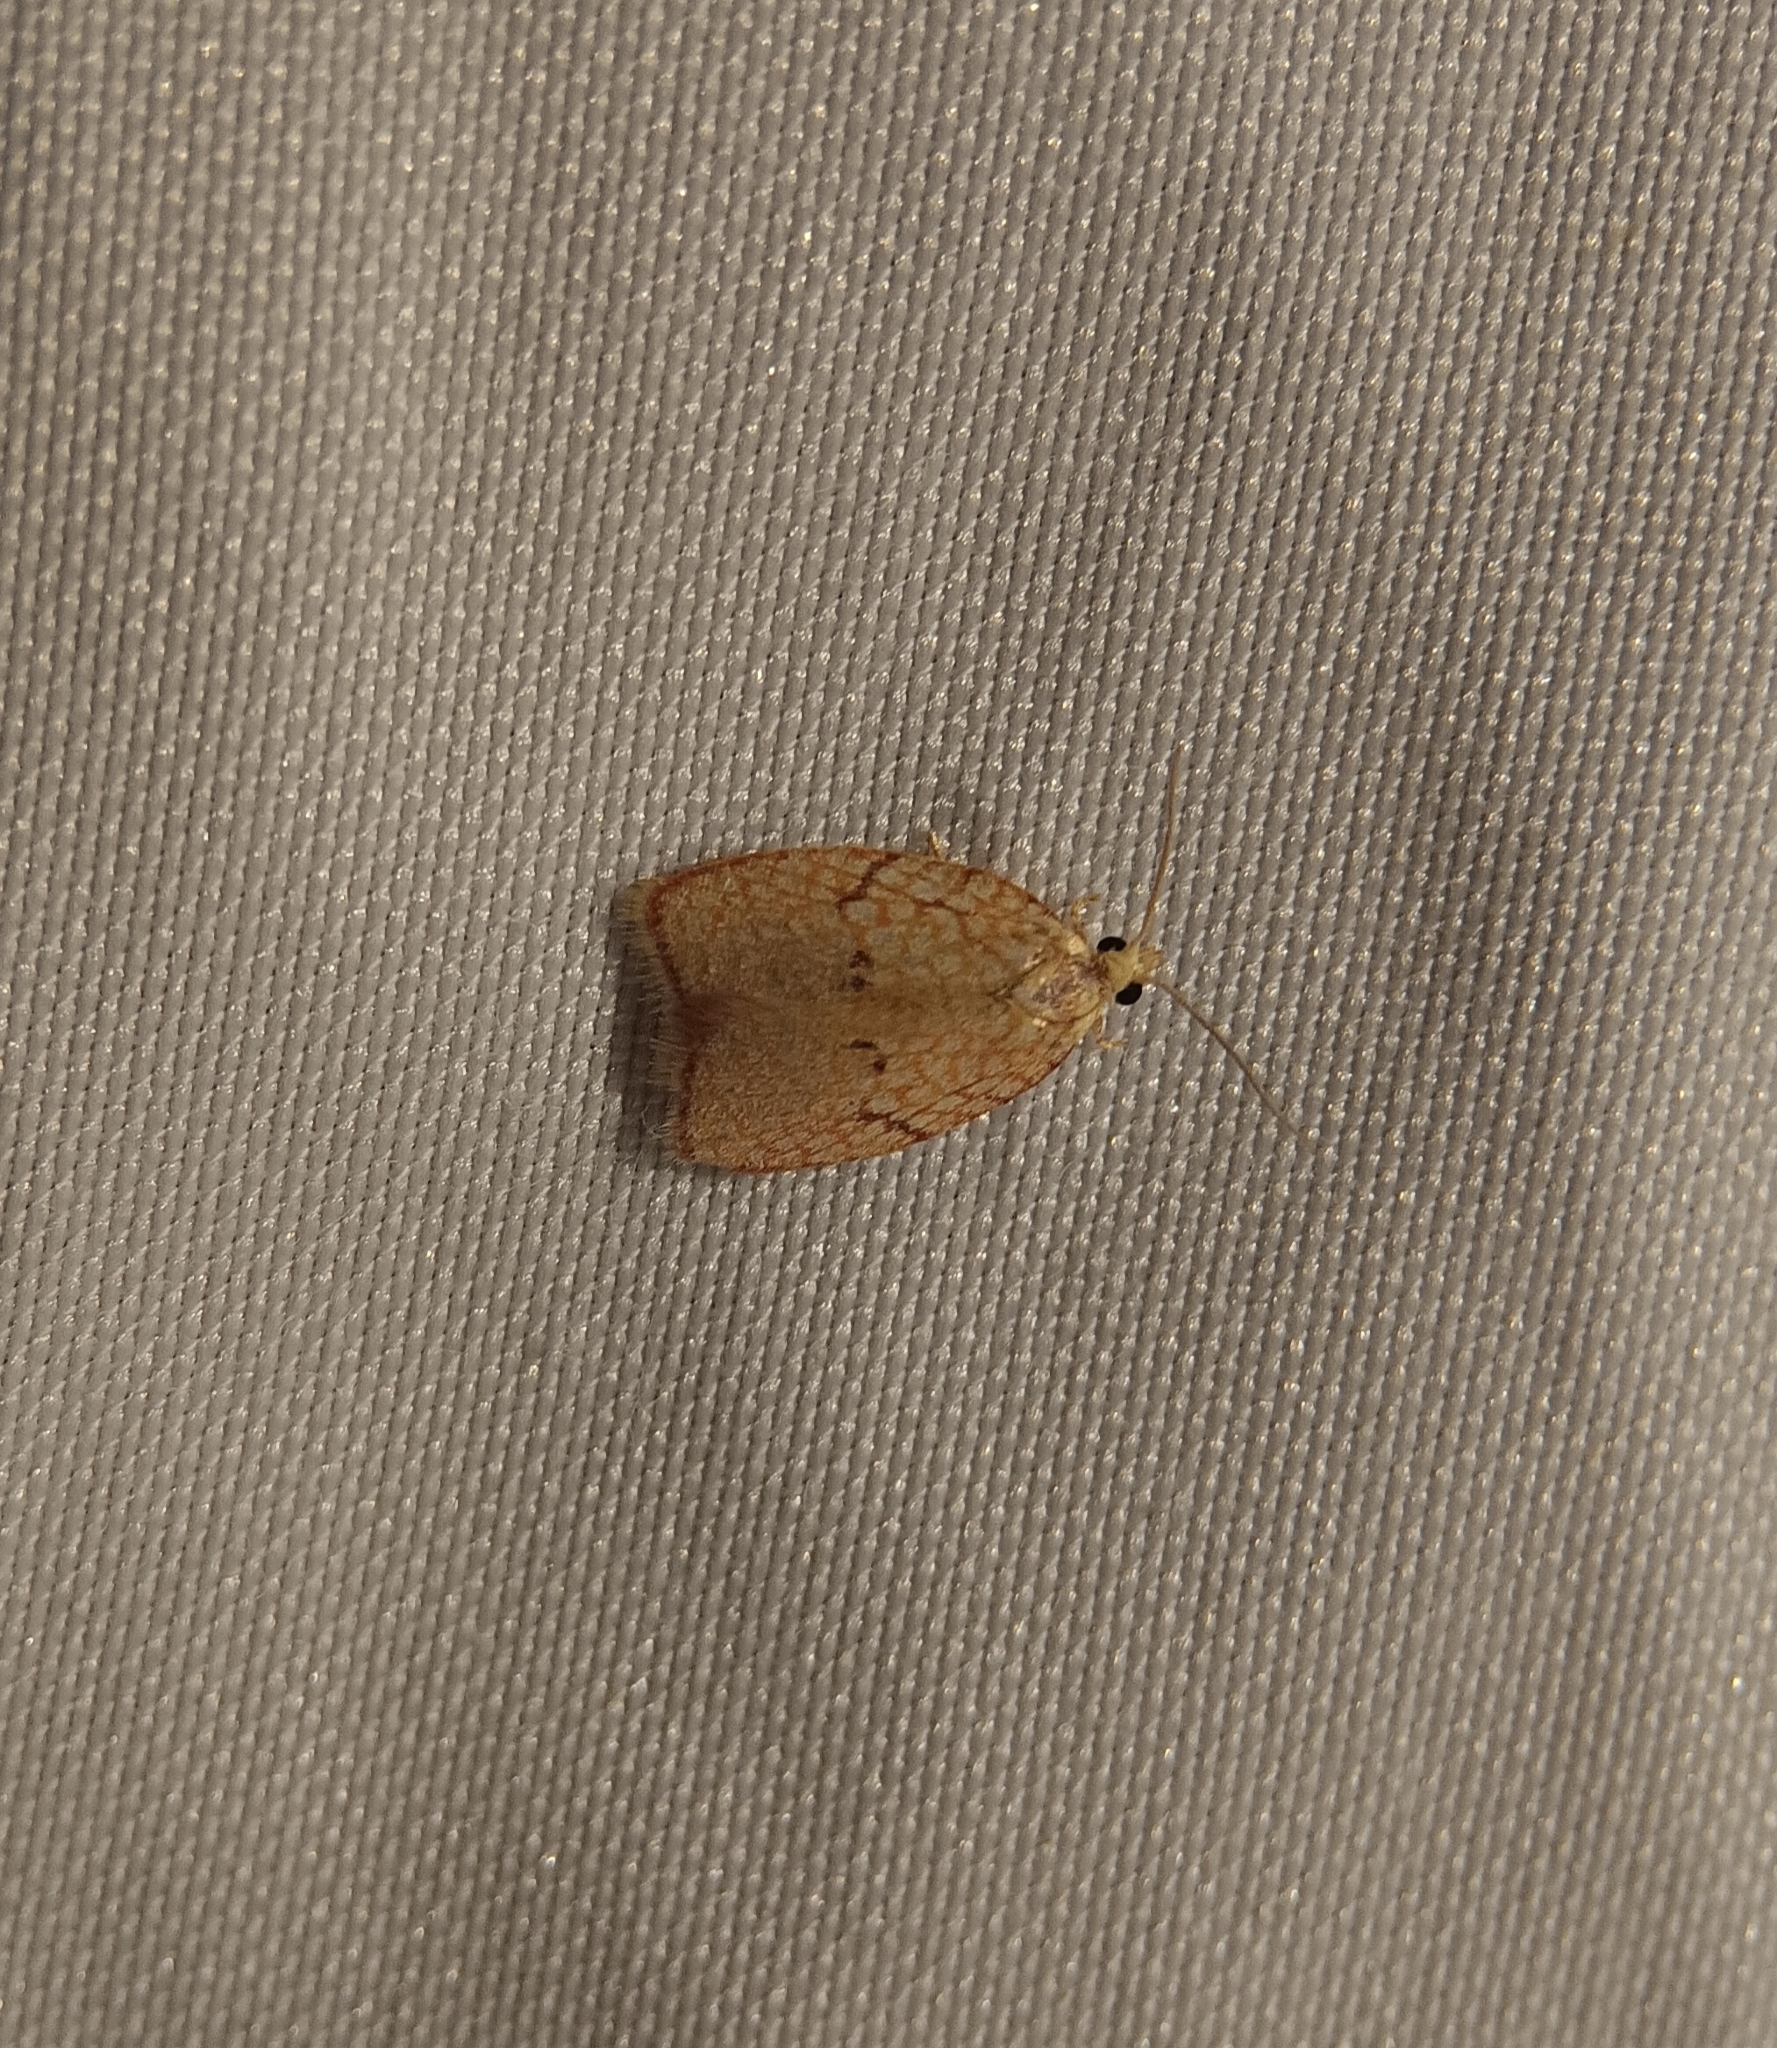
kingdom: Animalia
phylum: Arthropoda
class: Insecta
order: Lepidoptera
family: Tortricidae
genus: Acleris
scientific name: Acleris forsskaleana
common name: Maple button
